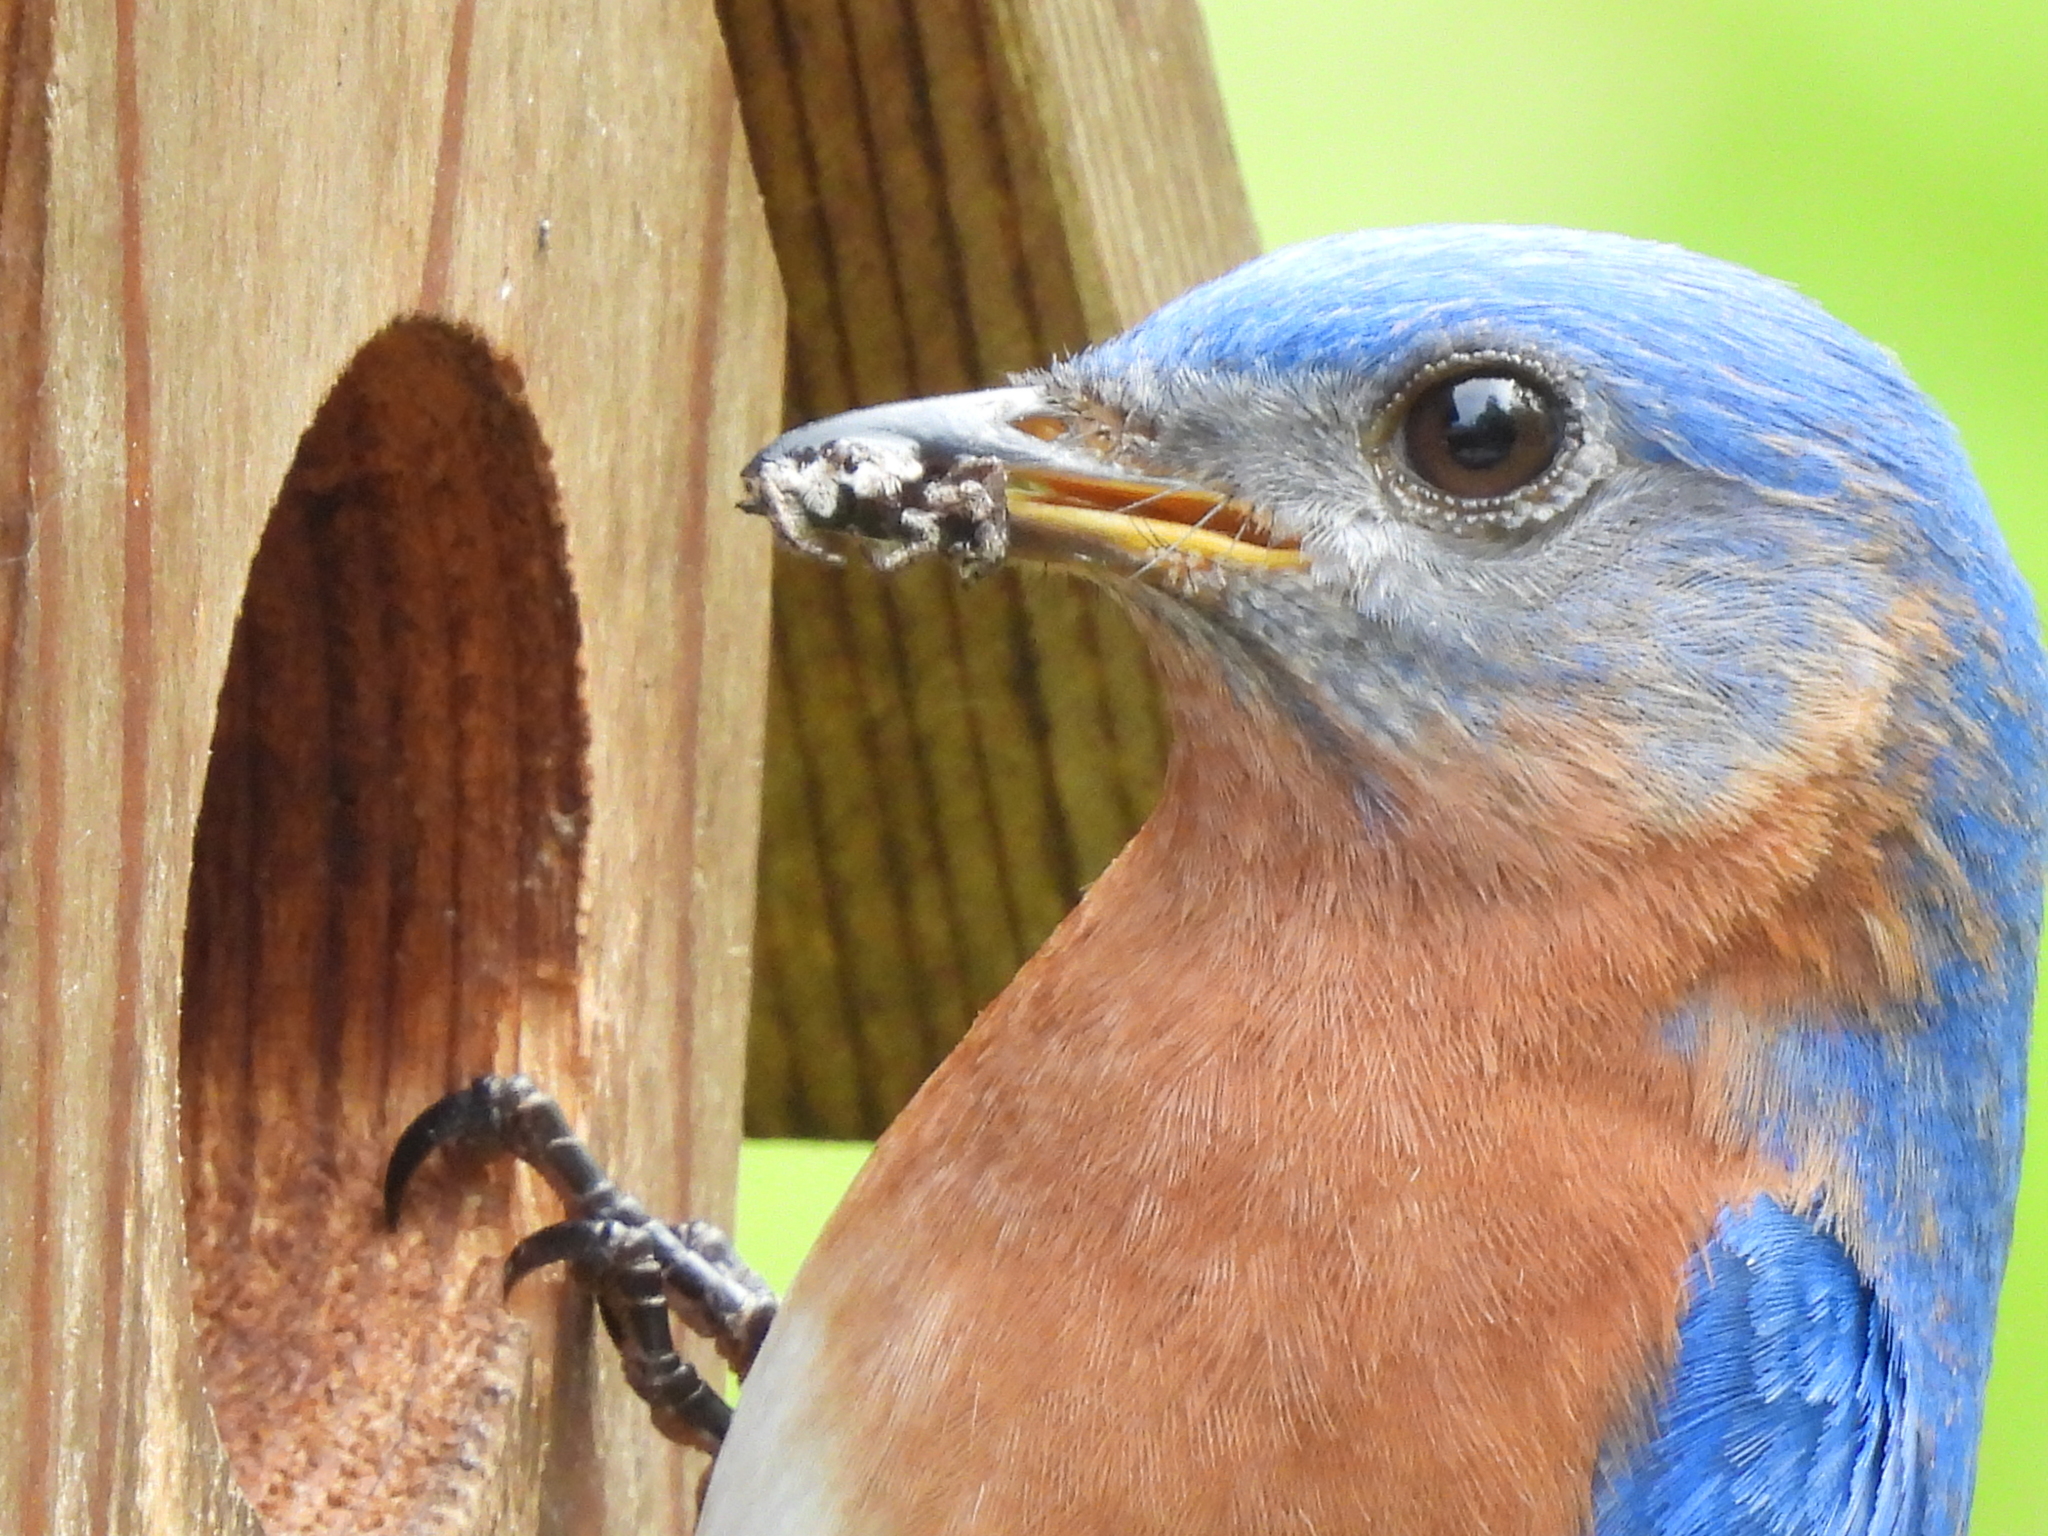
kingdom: Animalia
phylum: Arthropoda
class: Arachnida
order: Araneae
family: Salticidae
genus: Platycryptus
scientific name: Platycryptus undatus
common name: Tan jumping spider
